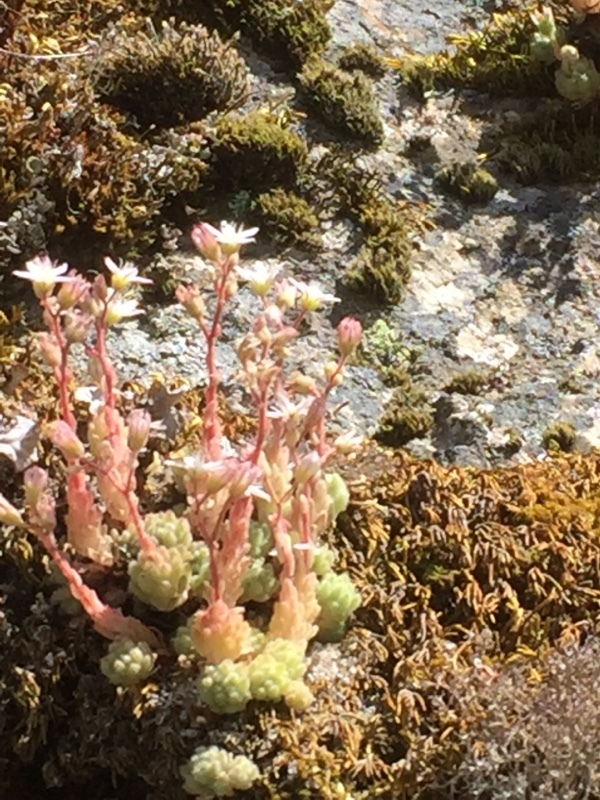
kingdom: Plantae
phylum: Tracheophyta
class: Magnoliopsida
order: Saxifragales
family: Crassulaceae
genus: Sedum
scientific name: Sedum hirsutum
